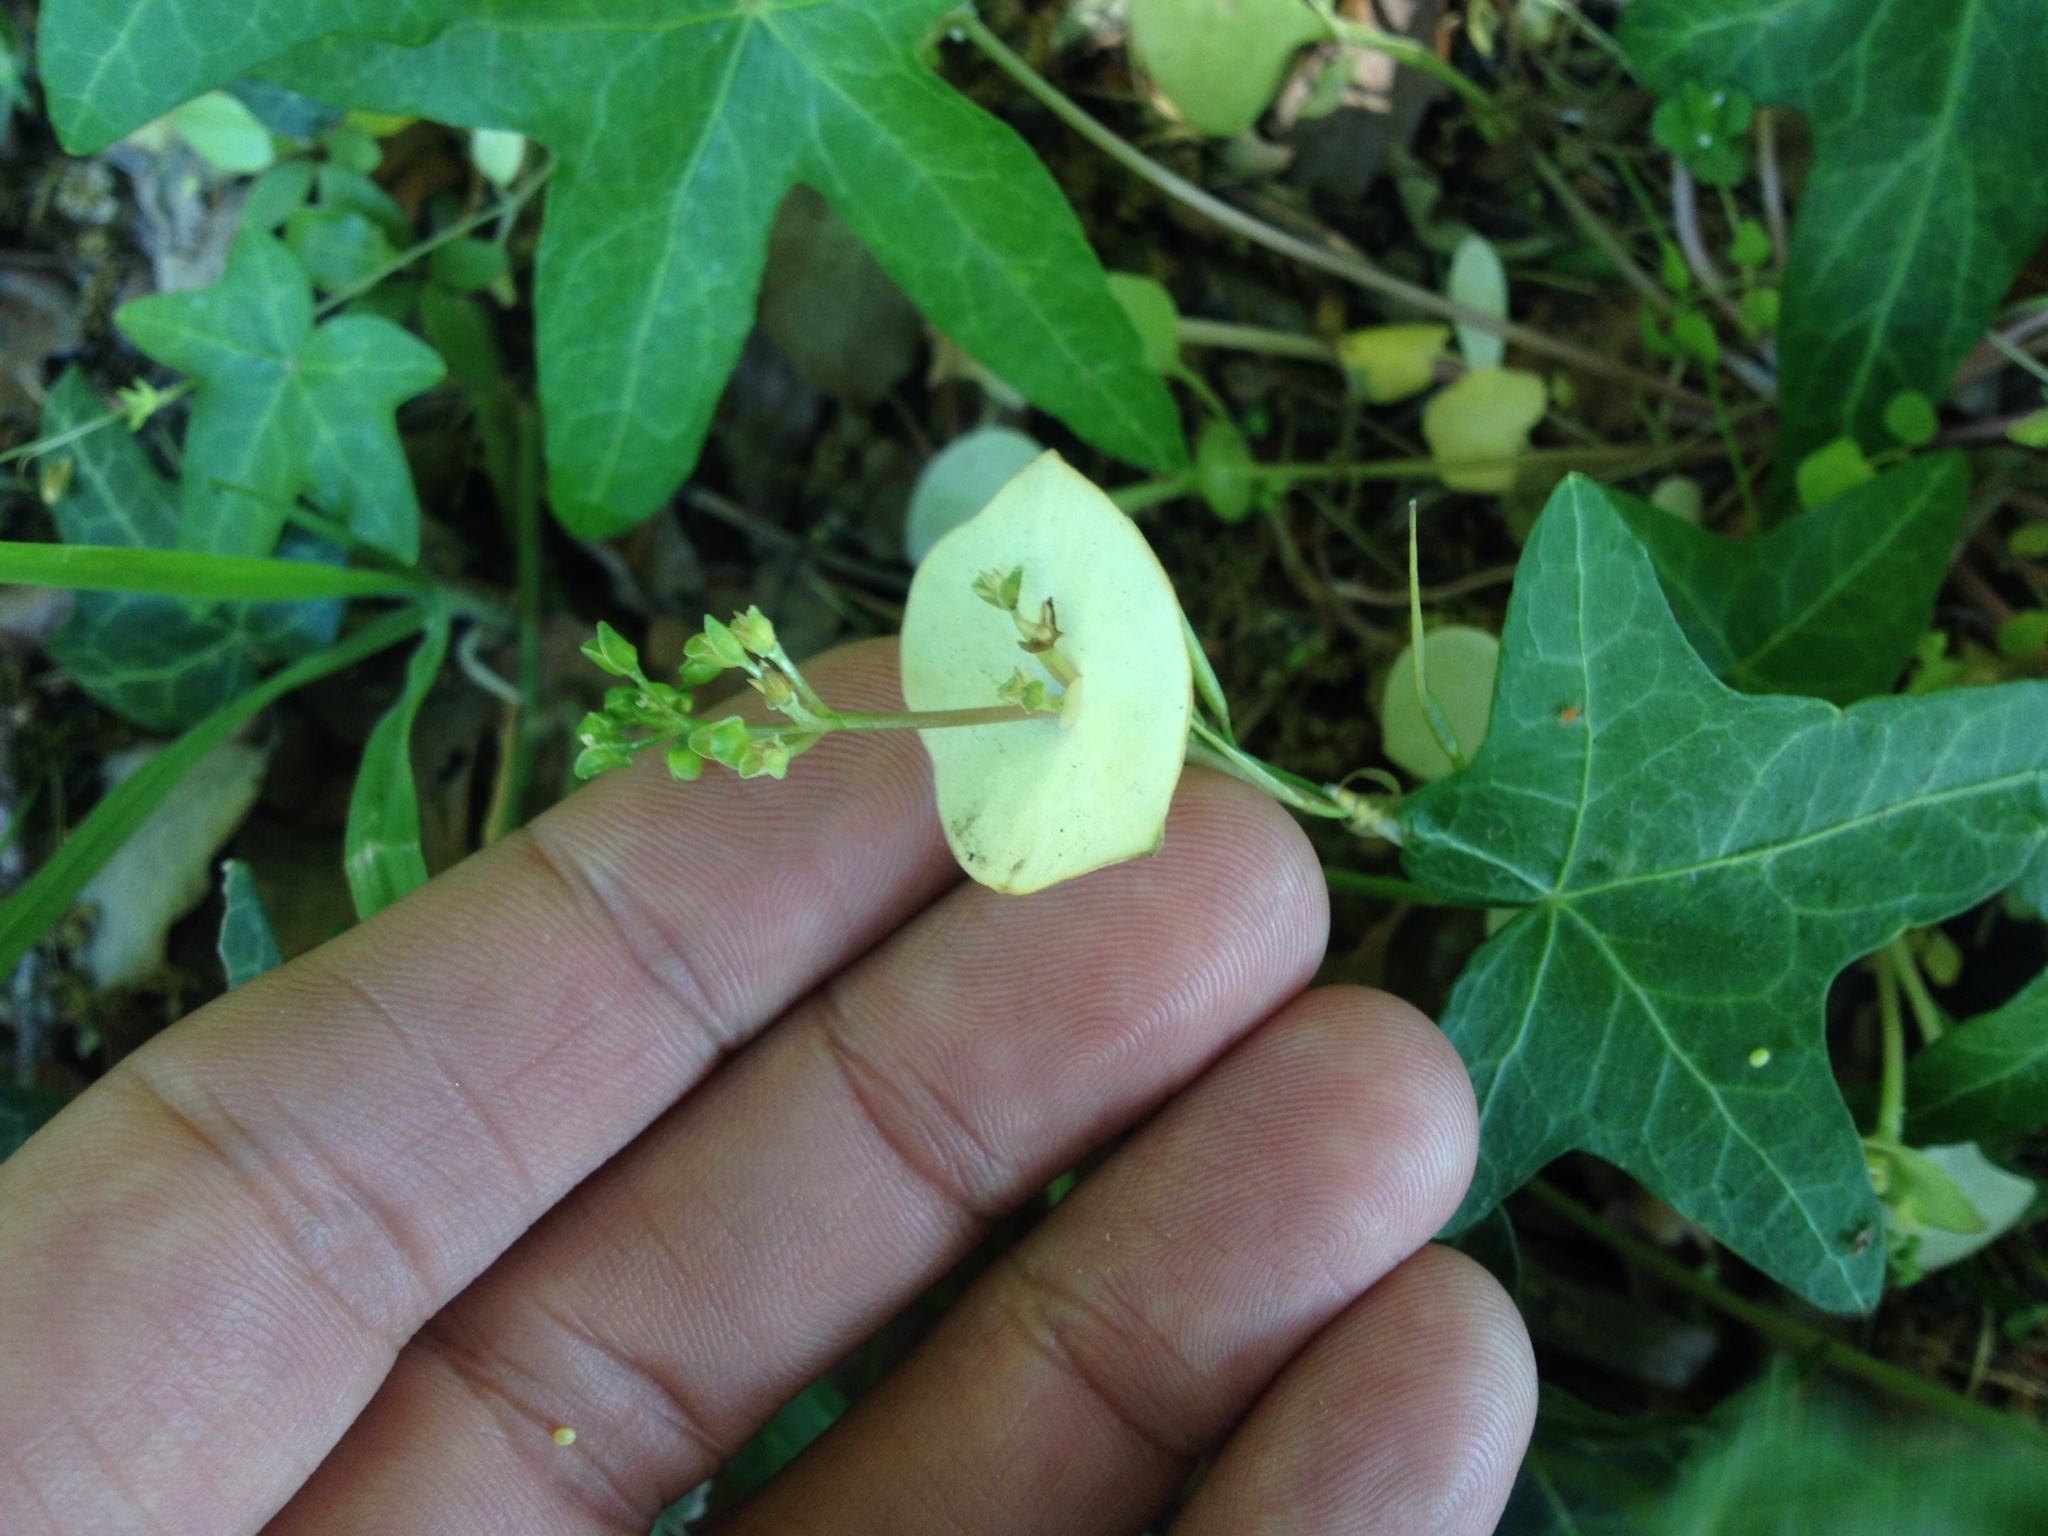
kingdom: Plantae
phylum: Tracheophyta
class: Magnoliopsida
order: Caryophyllales
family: Montiaceae
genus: Claytonia
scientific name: Claytonia perfoliata
